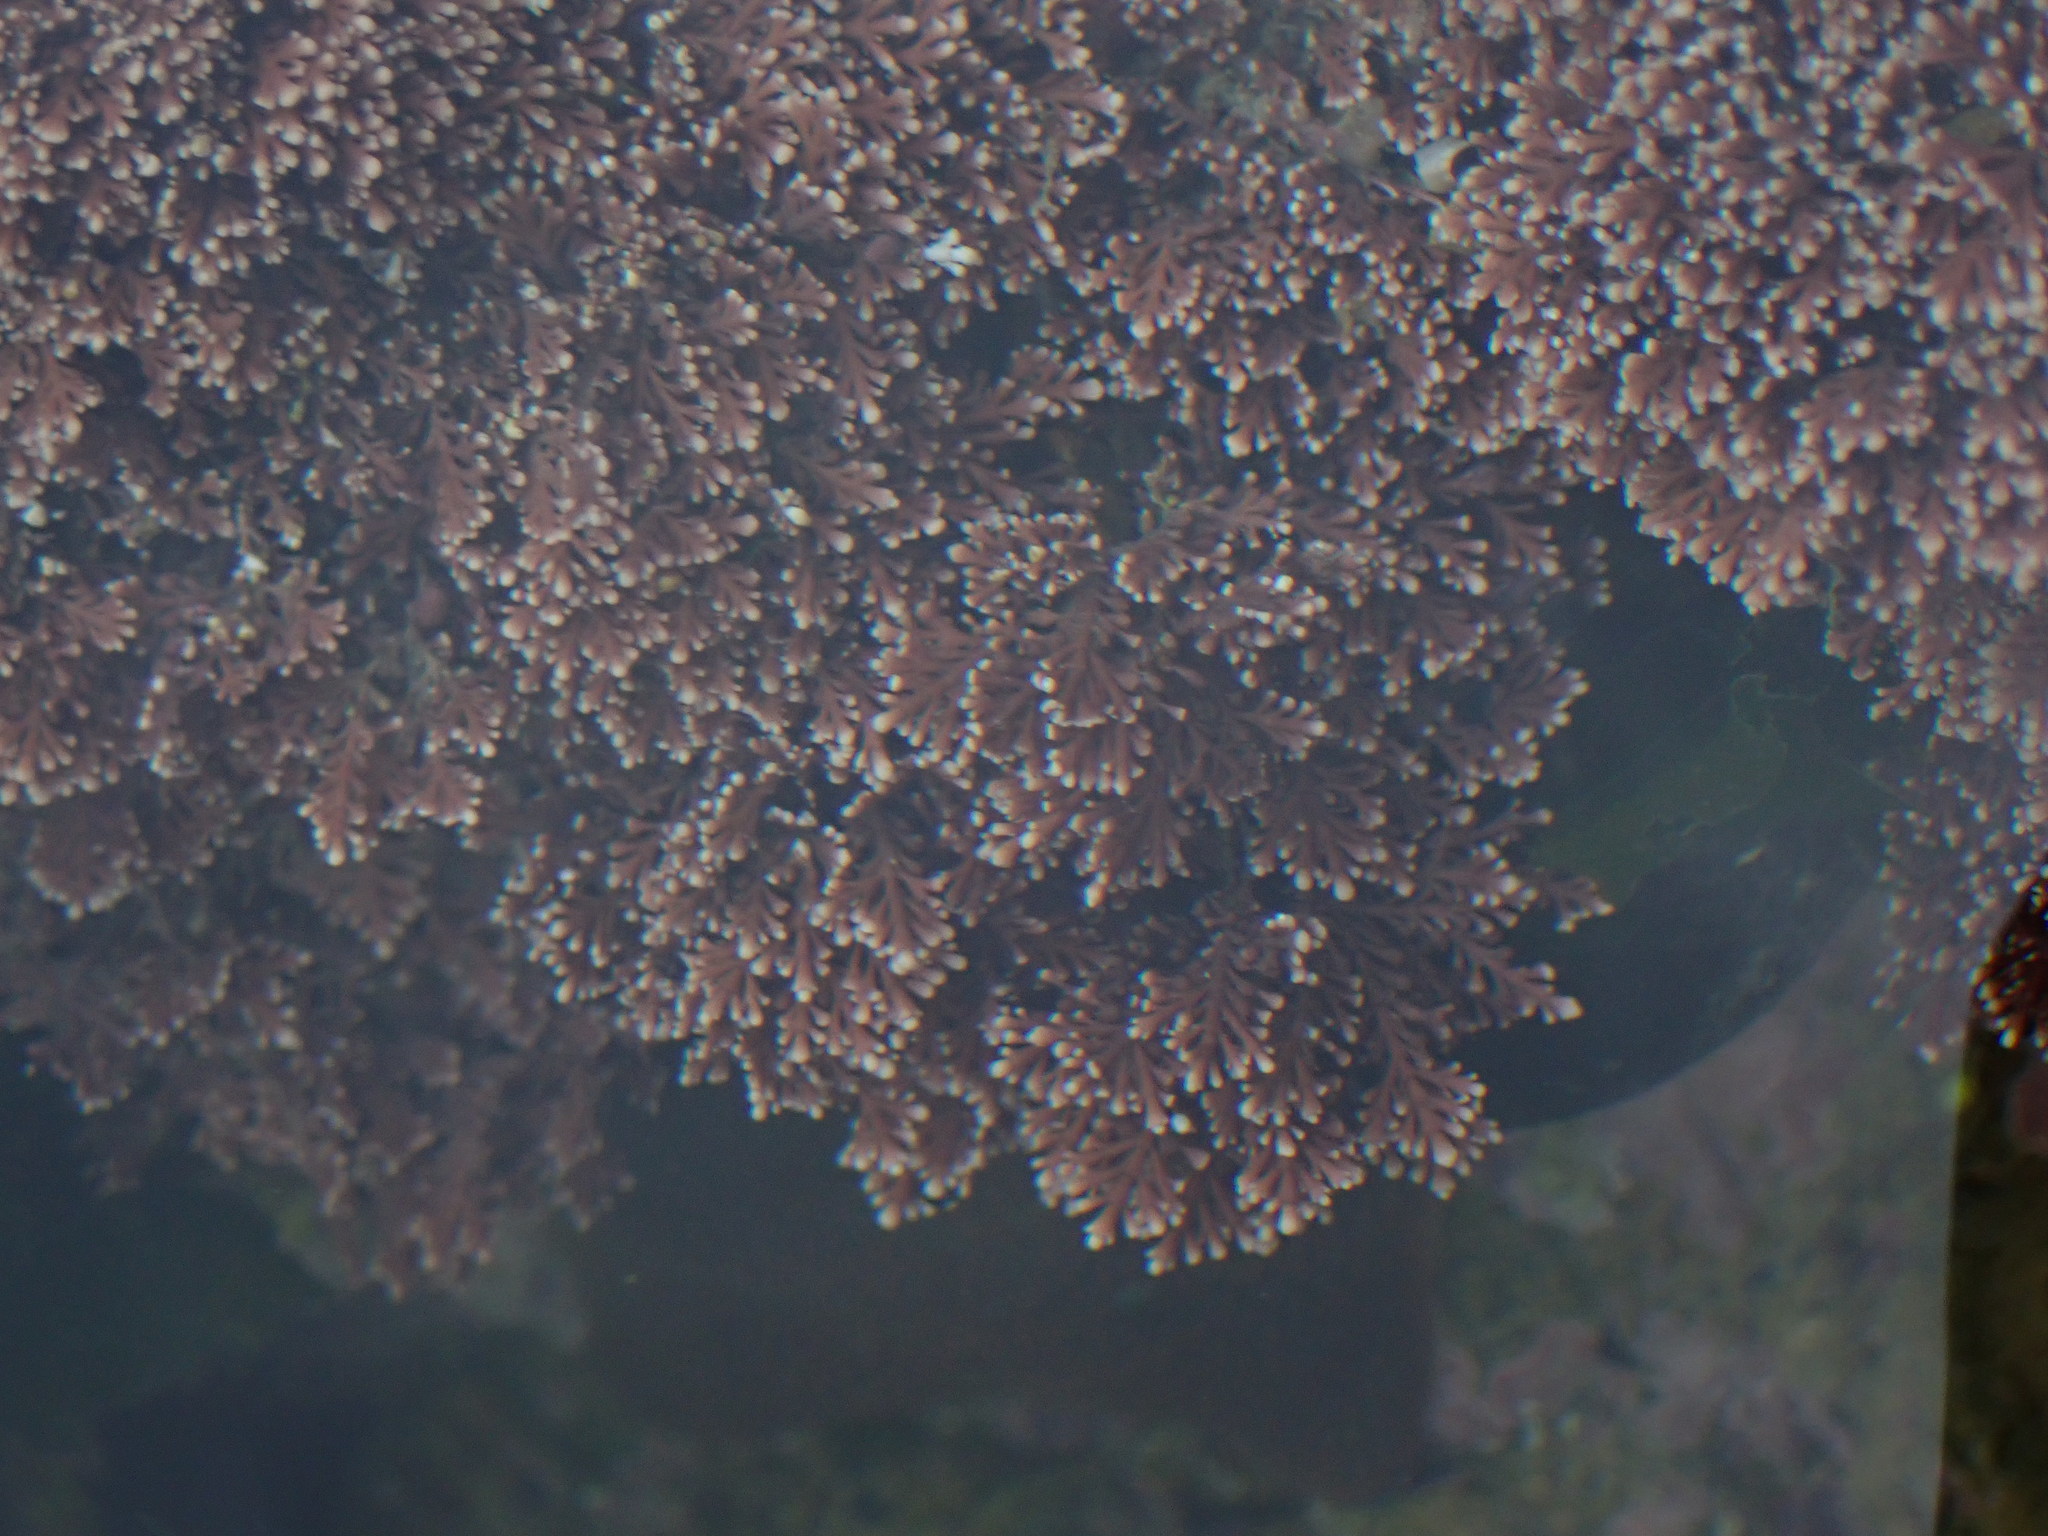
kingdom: Plantae
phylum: Rhodophyta
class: Florideophyceae
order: Corallinales
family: Corallinaceae
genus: Corallina
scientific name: Corallina officinalis
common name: Coral weed
